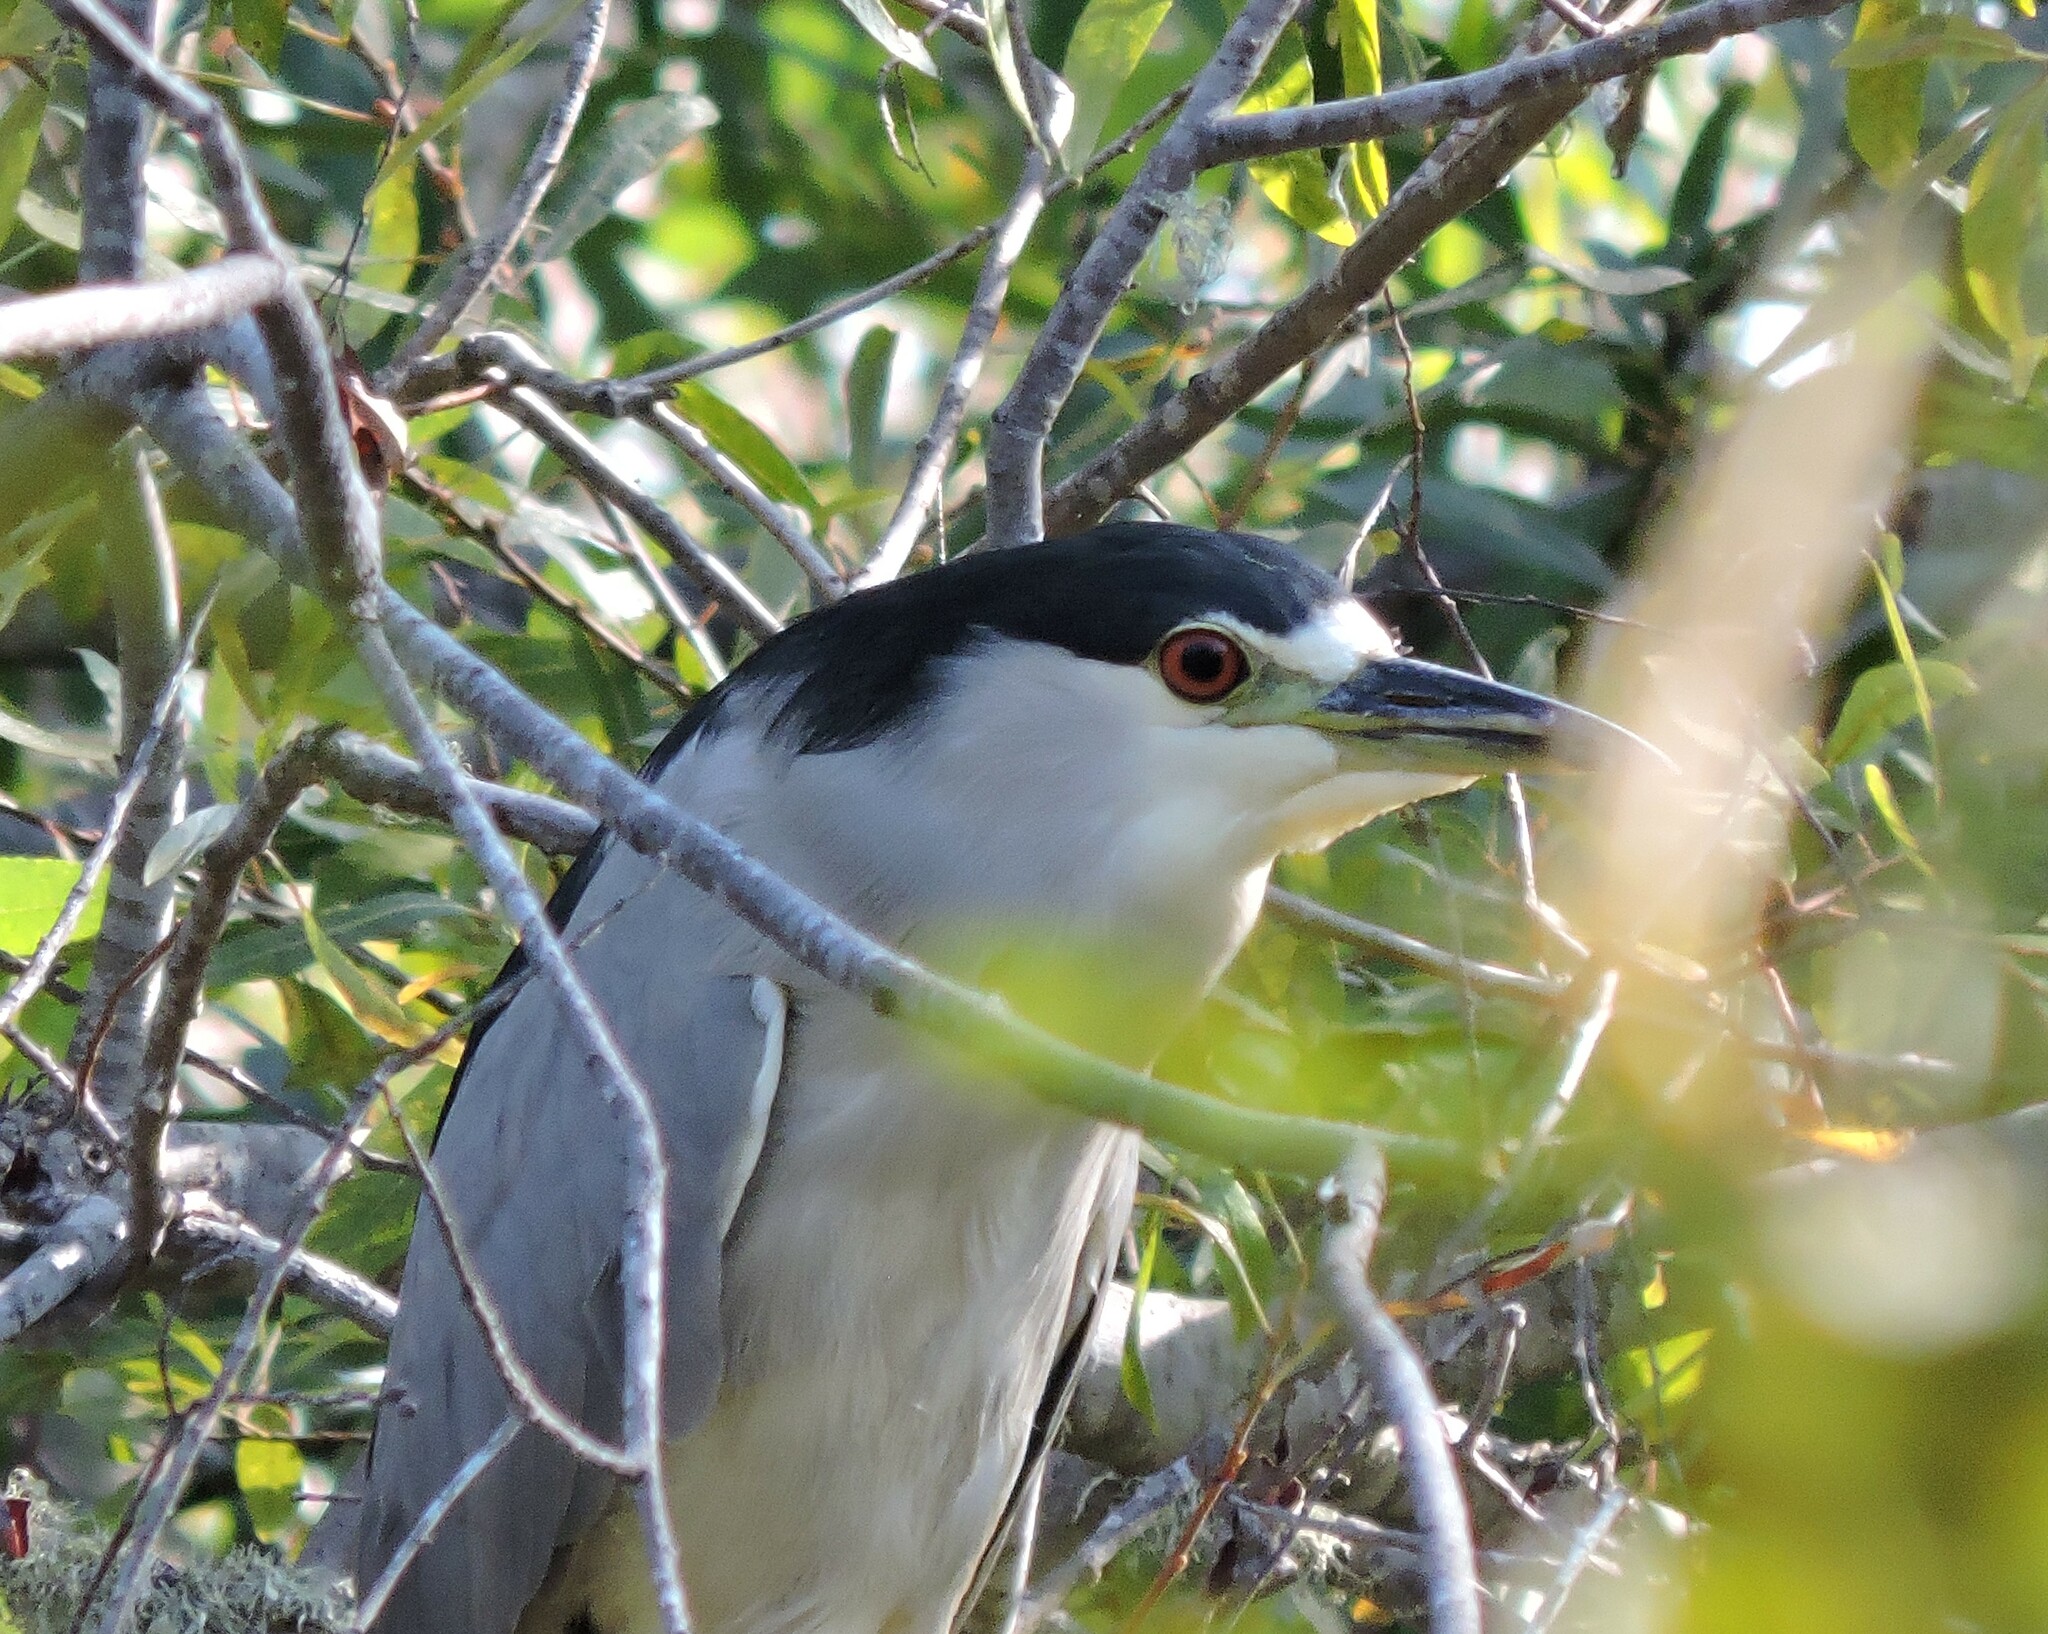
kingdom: Animalia
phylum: Chordata
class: Aves
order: Pelecaniformes
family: Ardeidae
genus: Nycticorax
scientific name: Nycticorax nycticorax
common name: Black-crowned night heron
